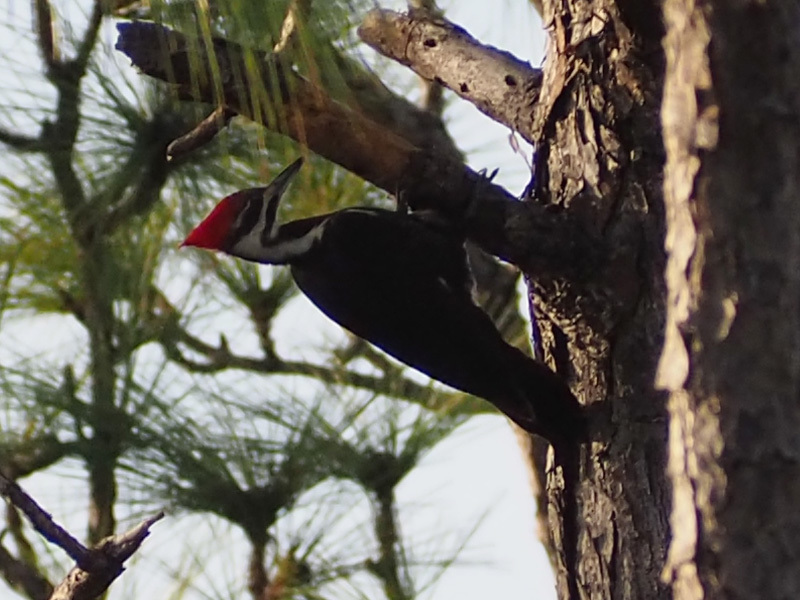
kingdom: Animalia
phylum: Chordata
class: Aves
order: Piciformes
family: Picidae
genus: Dryocopus
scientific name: Dryocopus pileatus
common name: Pileated woodpecker
